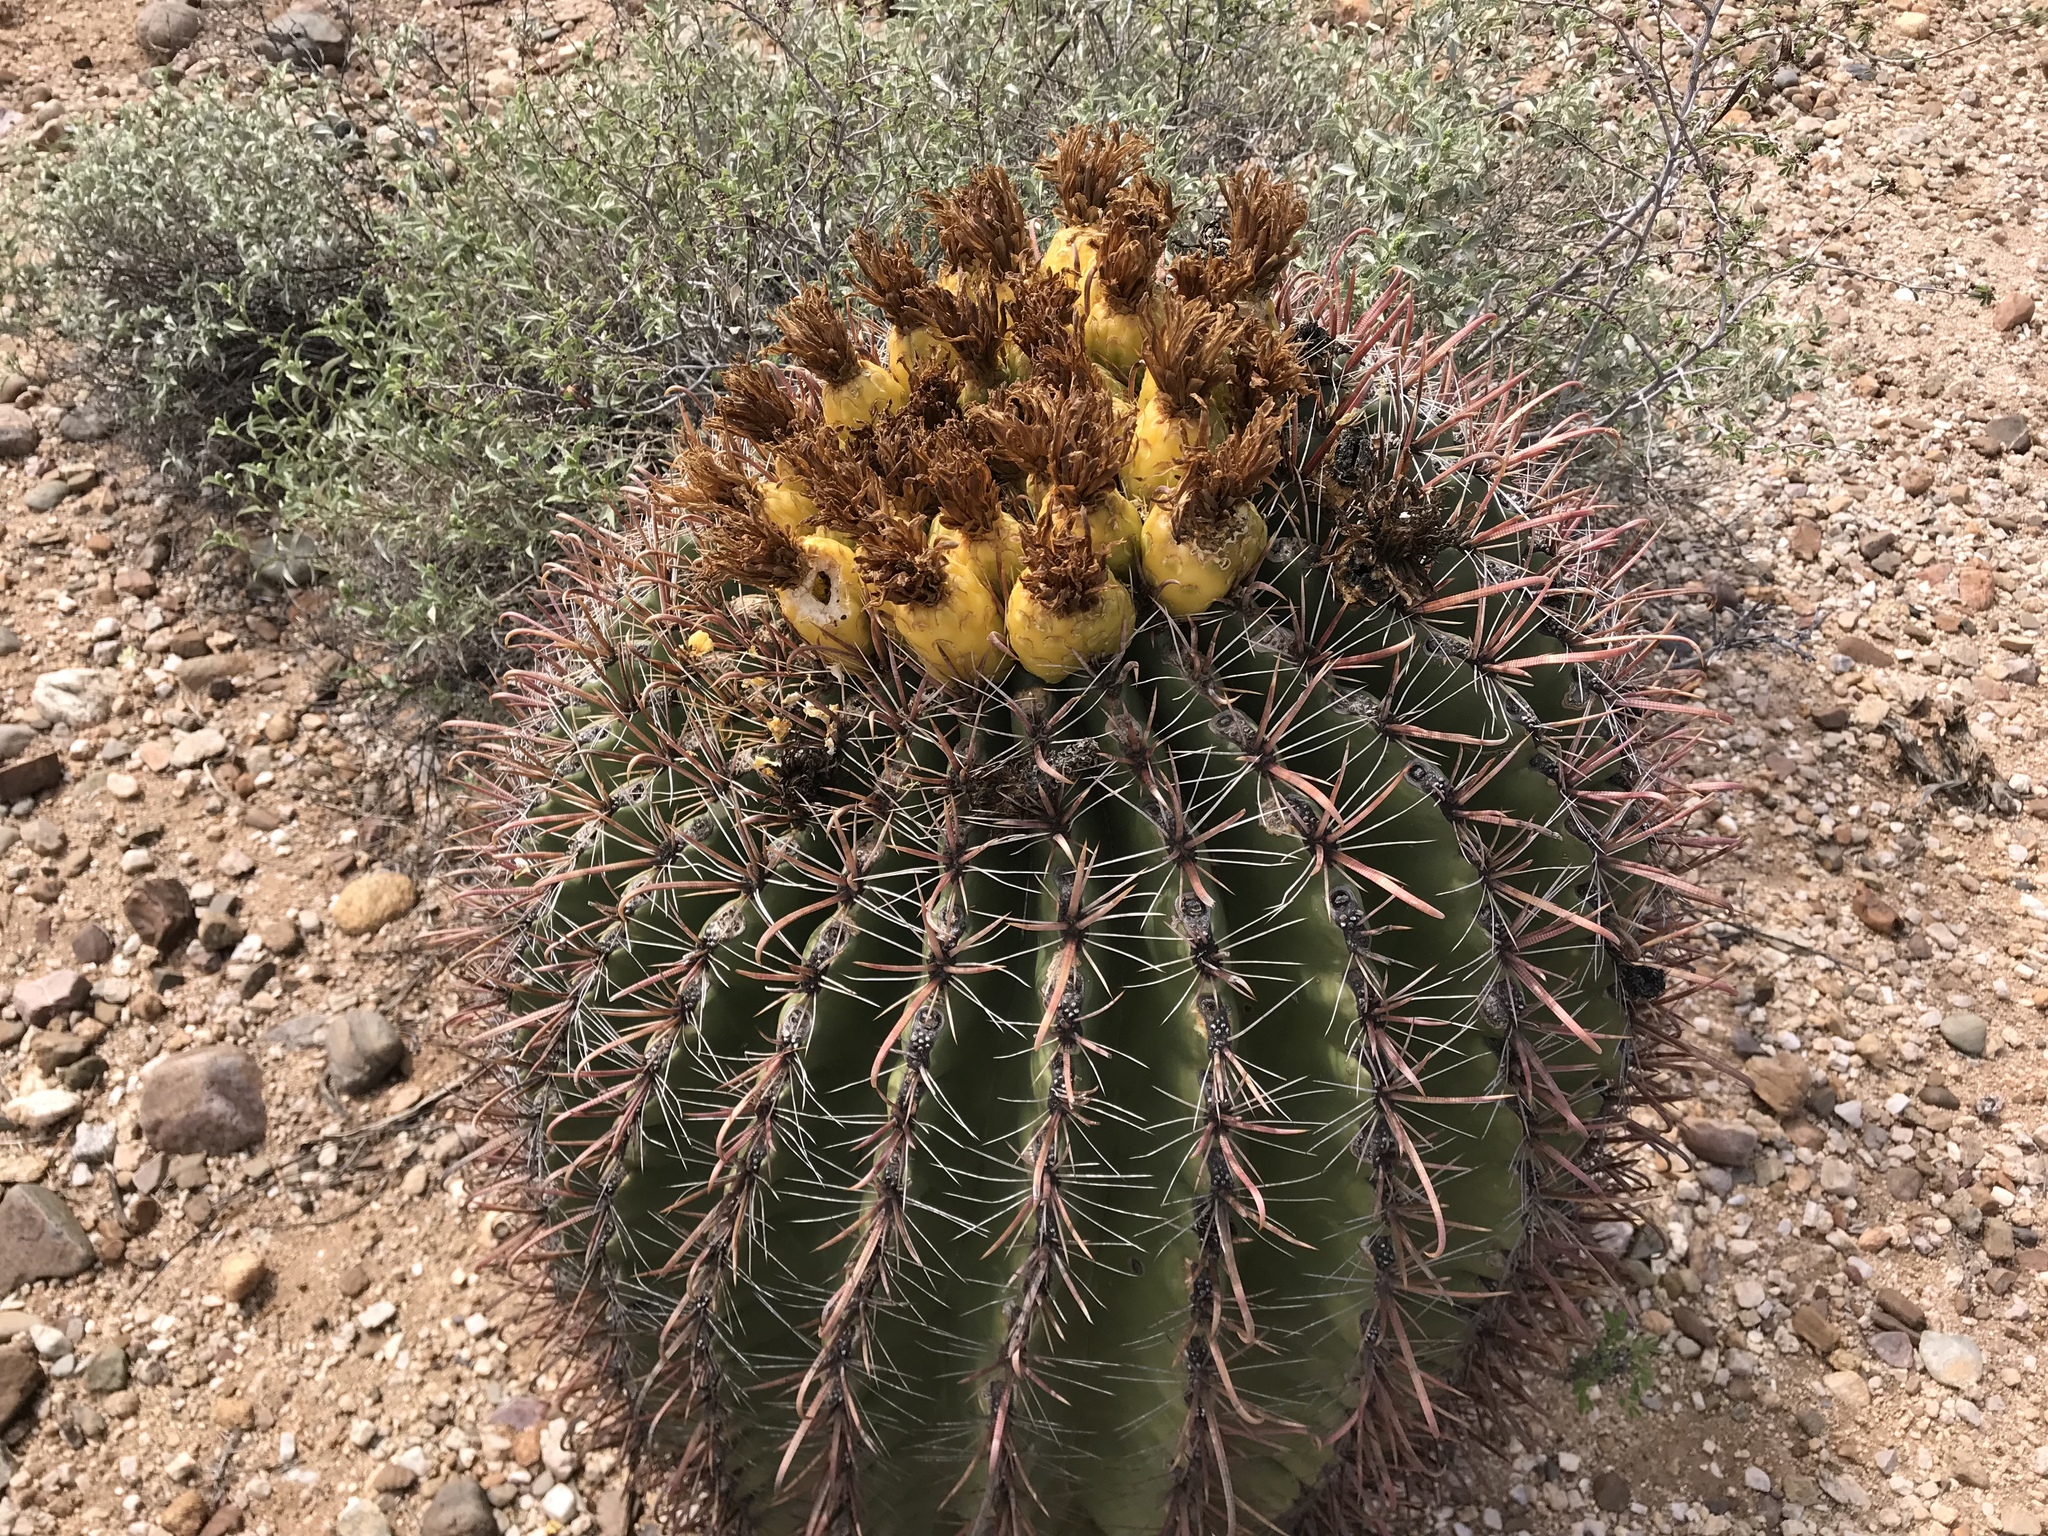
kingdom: Plantae
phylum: Tracheophyta
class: Magnoliopsida
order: Caryophyllales
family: Cactaceae
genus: Ferocactus
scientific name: Ferocactus wislizeni
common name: Candy barrel cactus
